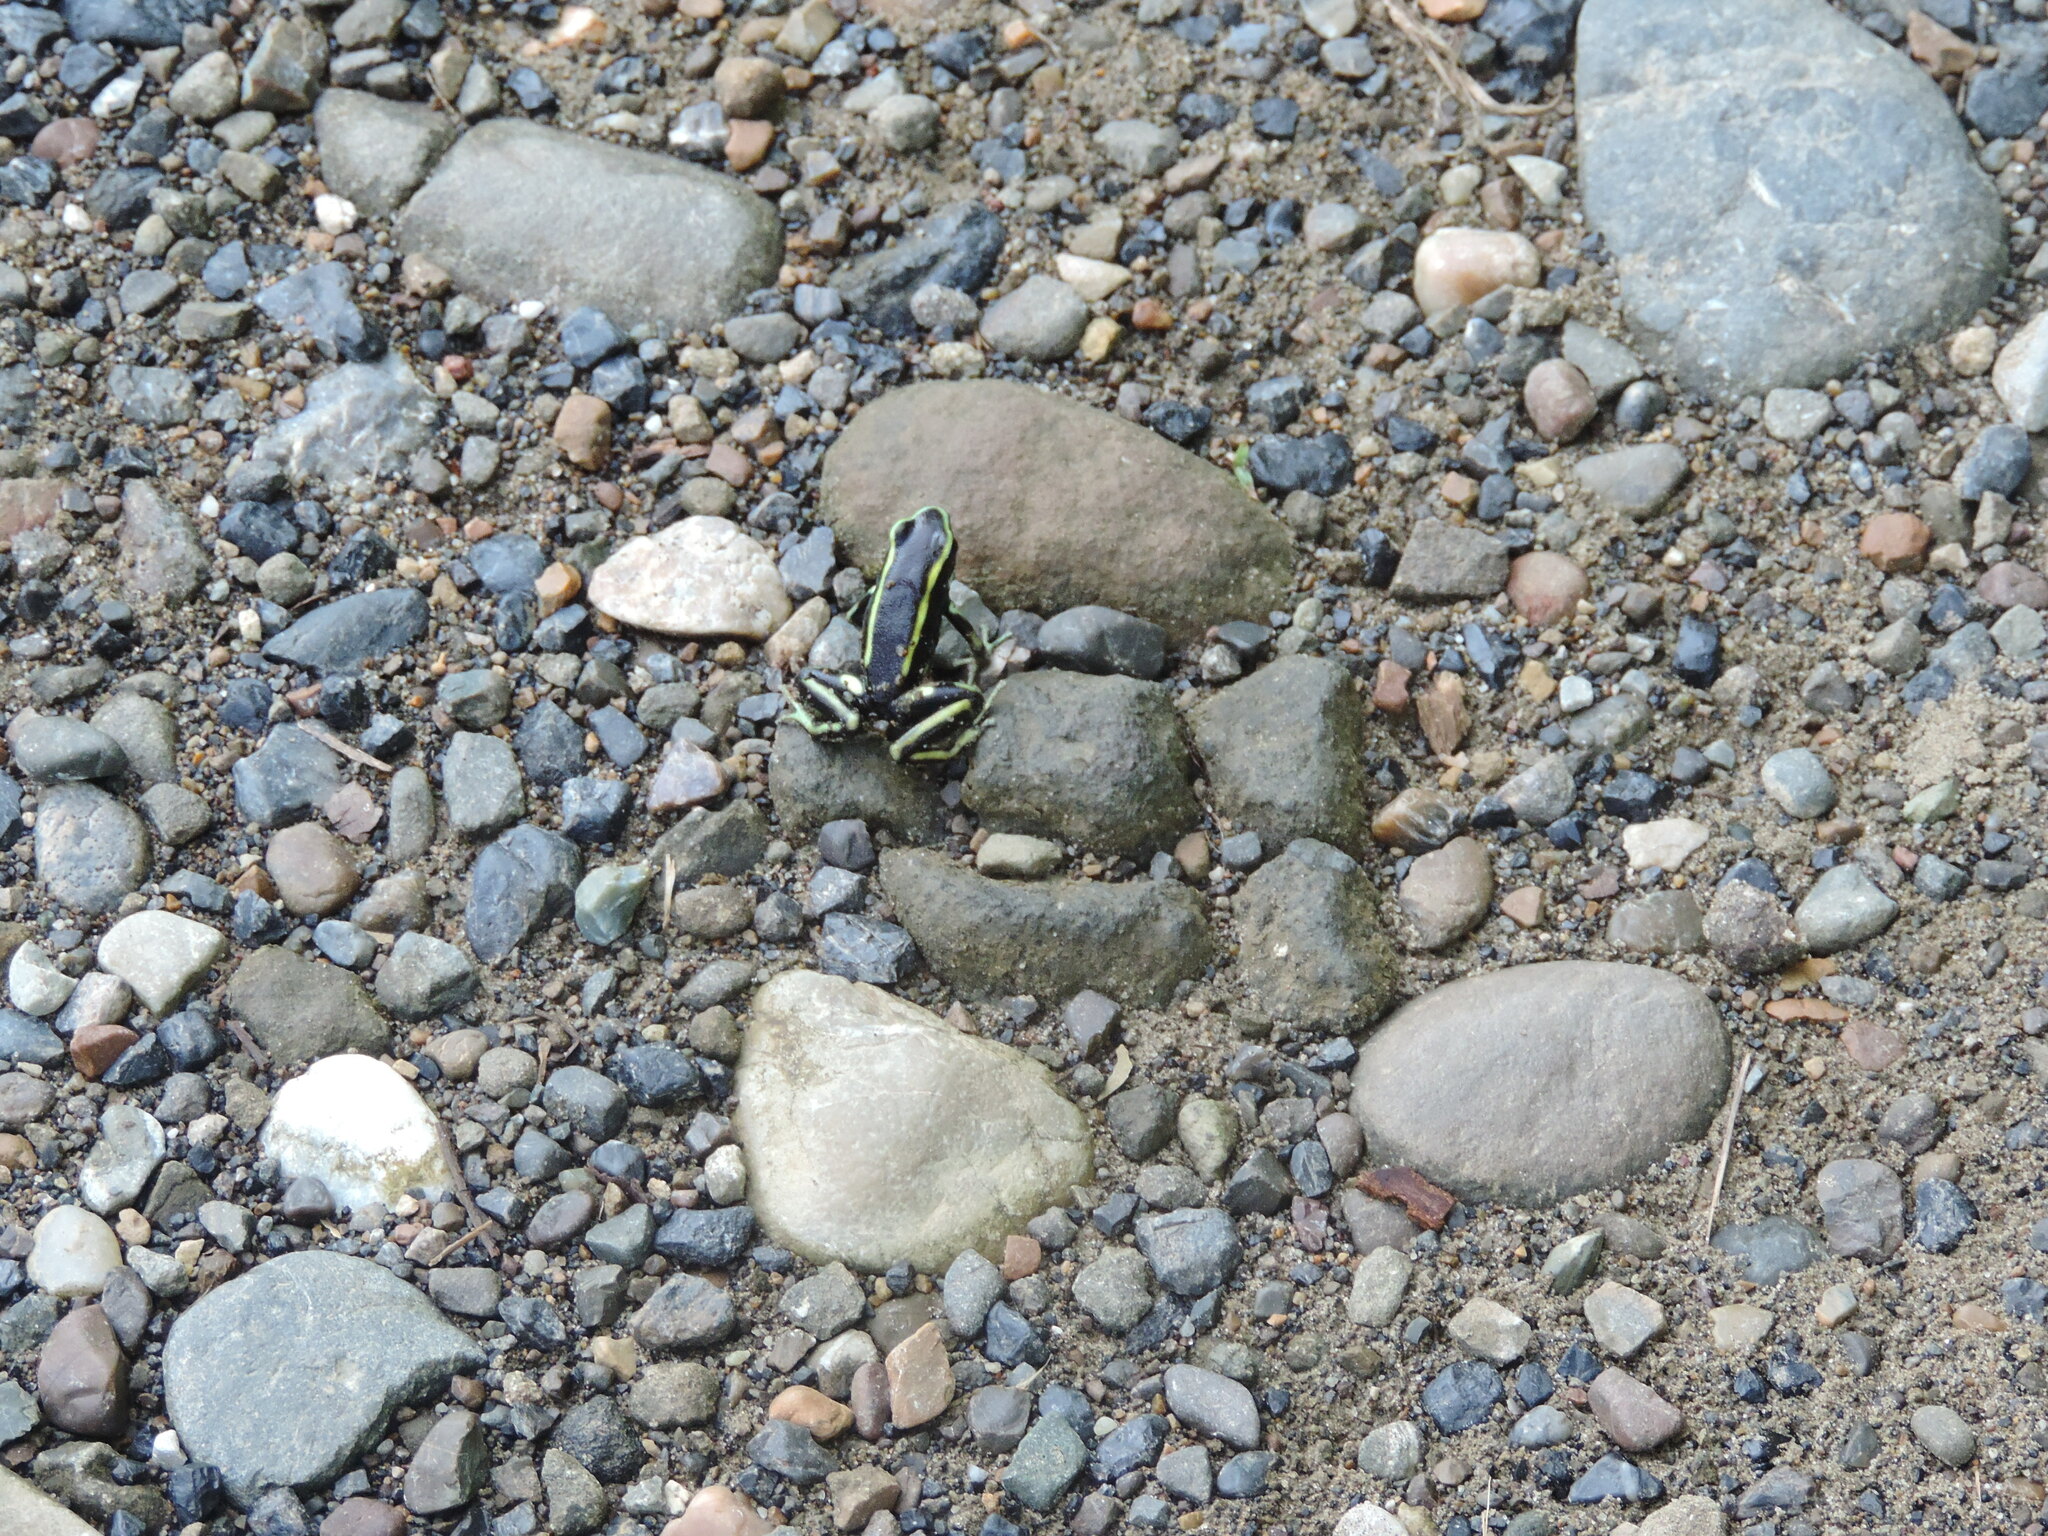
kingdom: Animalia
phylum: Chordata
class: Amphibia
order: Anura
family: Dendrobatidae
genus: Dendrobates
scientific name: Dendrobates truncatus
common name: Yellow-striped poison frog
